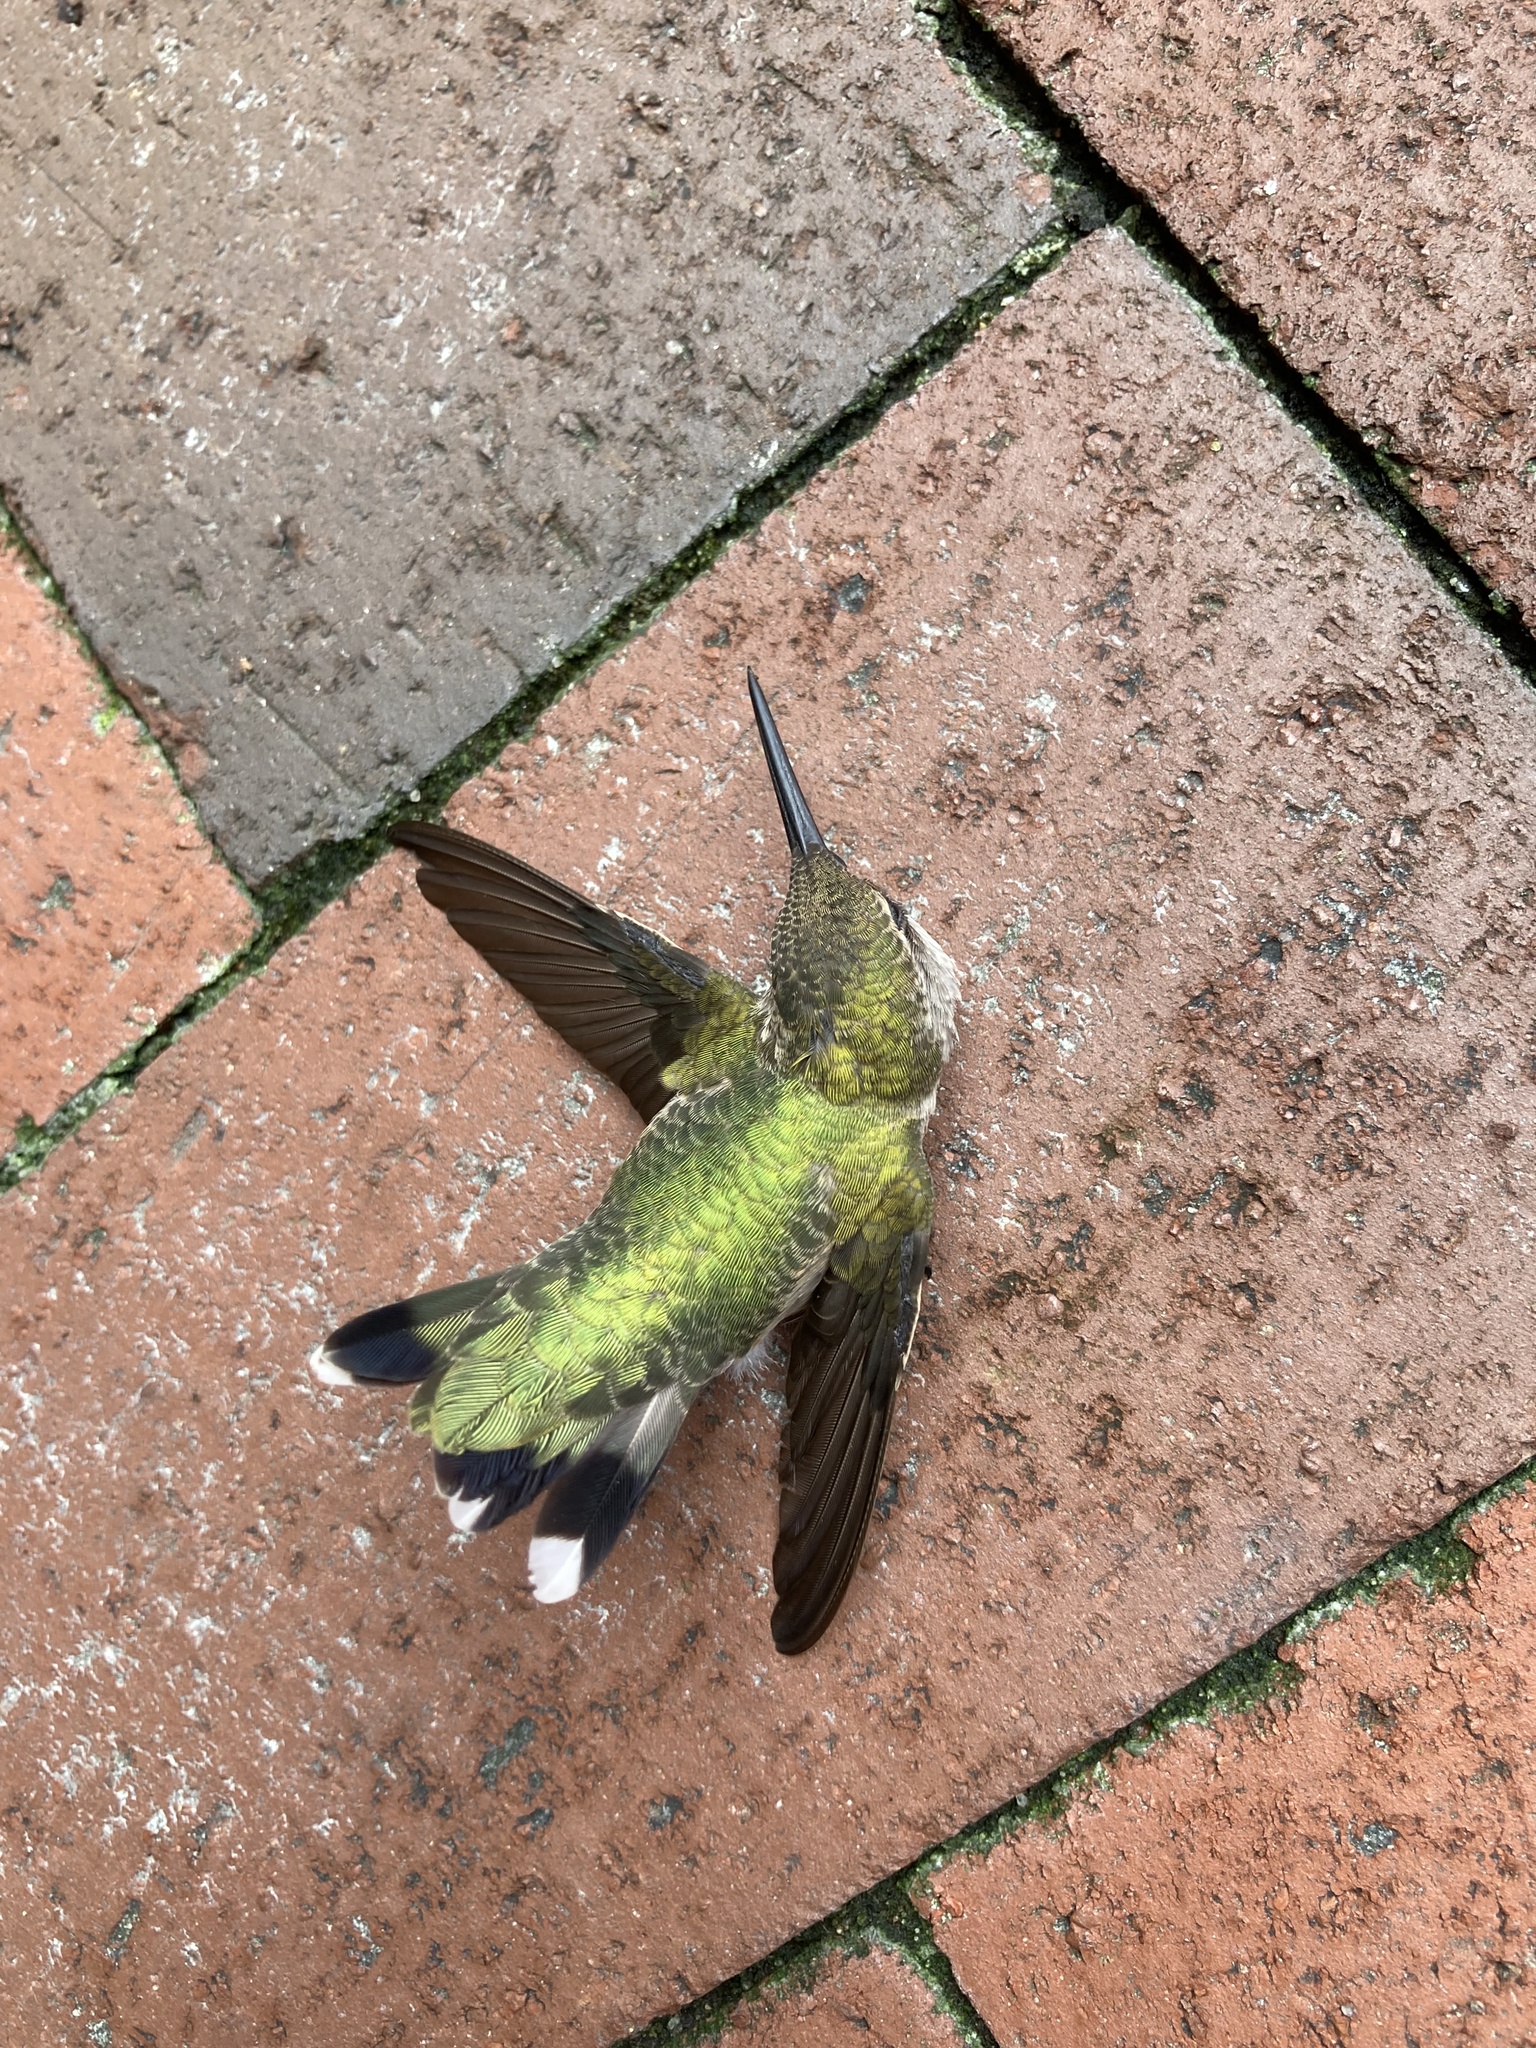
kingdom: Animalia
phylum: Chordata
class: Aves
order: Apodiformes
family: Trochilidae
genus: Archilochus
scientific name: Archilochus colubris
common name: Ruby-throated hummingbird
